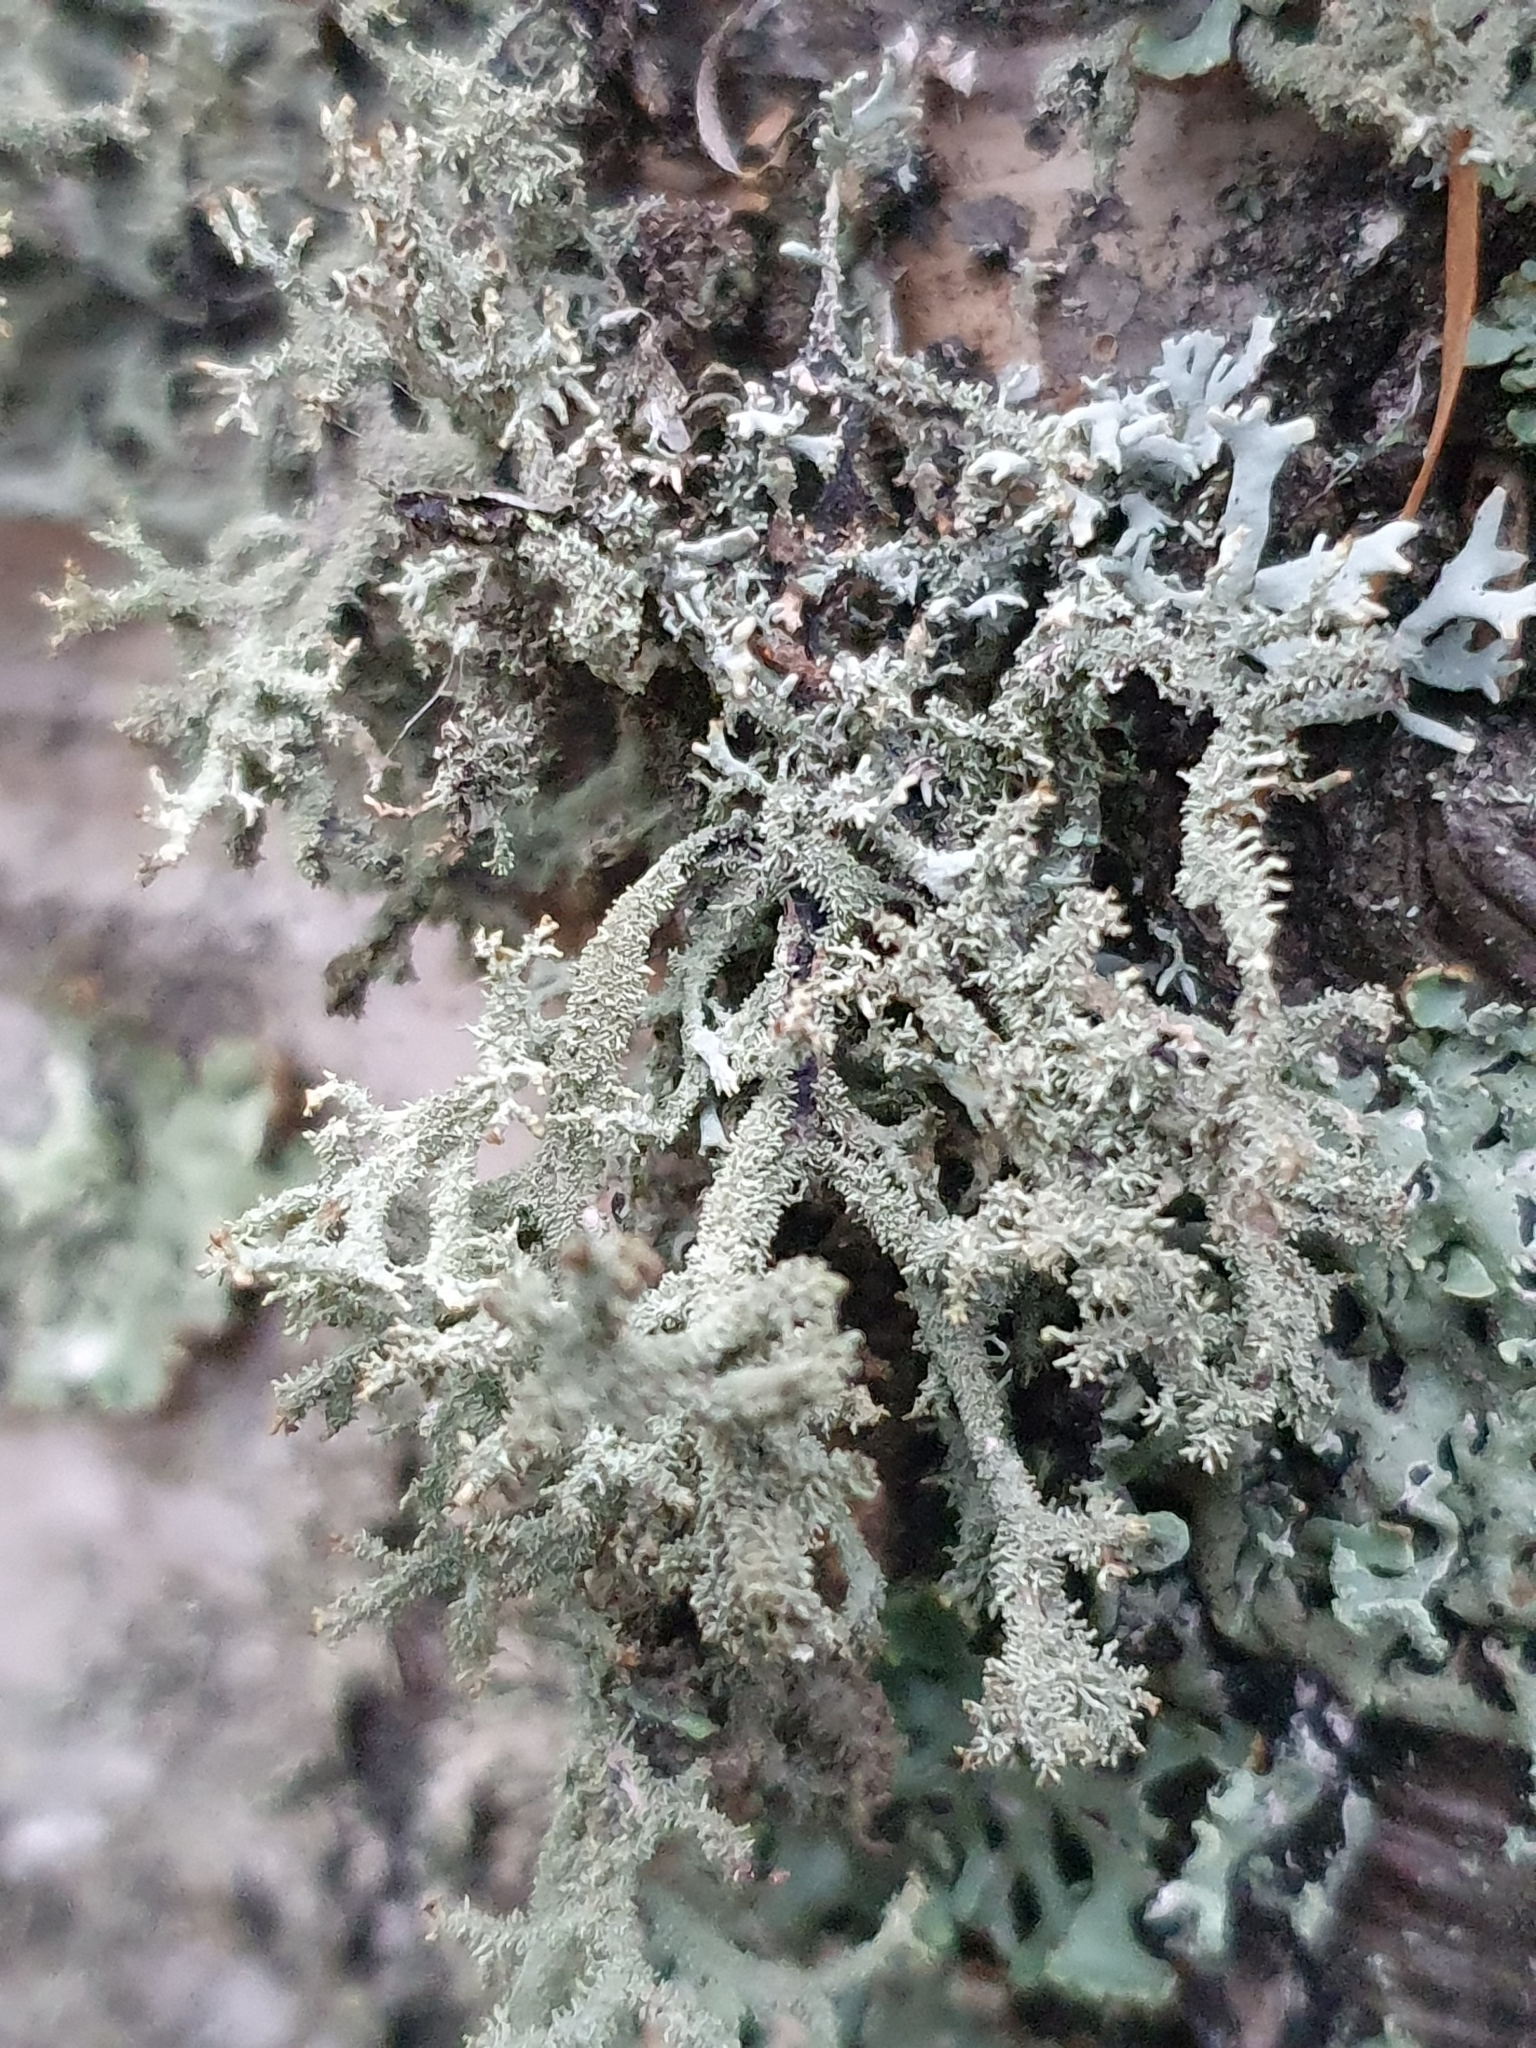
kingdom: Fungi
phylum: Ascomycota
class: Lecanoromycetes
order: Lecanorales
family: Parmeliaceae
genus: Pseudevernia
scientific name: Pseudevernia furfuracea
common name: Tree moss
